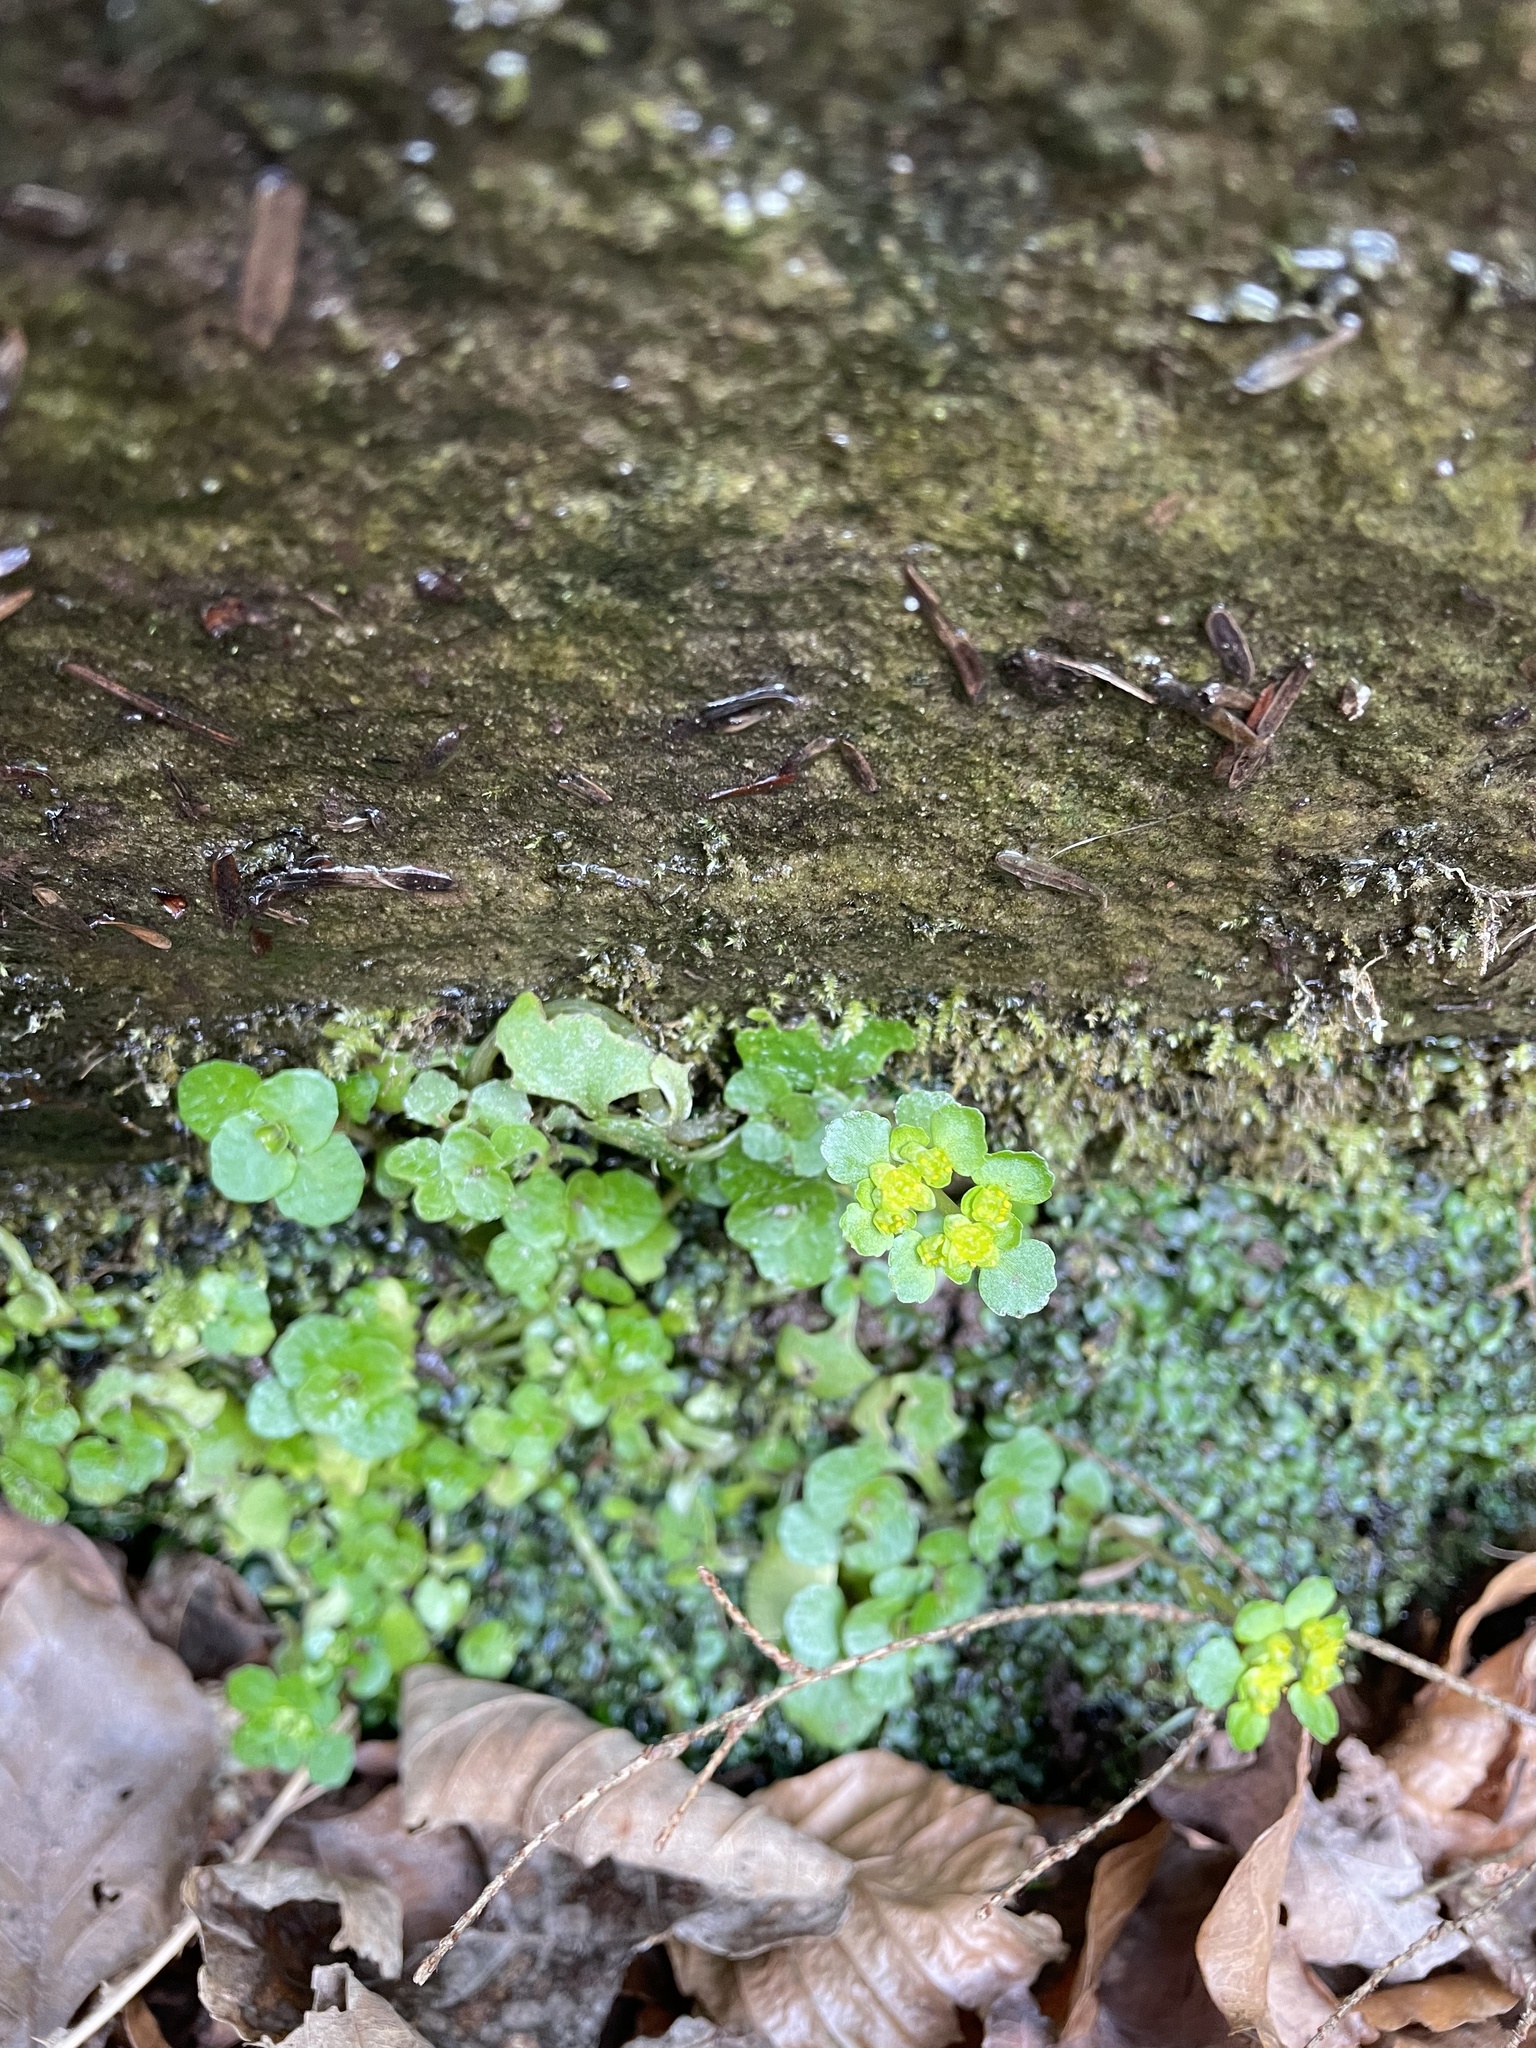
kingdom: Plantae
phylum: Tracheophyta
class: Magnoliopsida
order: Saxifragales
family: Saxifragaceae
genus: Chrysosplenium
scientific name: Chrysosplenium oppositifolium
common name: Opposite-leaved golden-saxifrage
